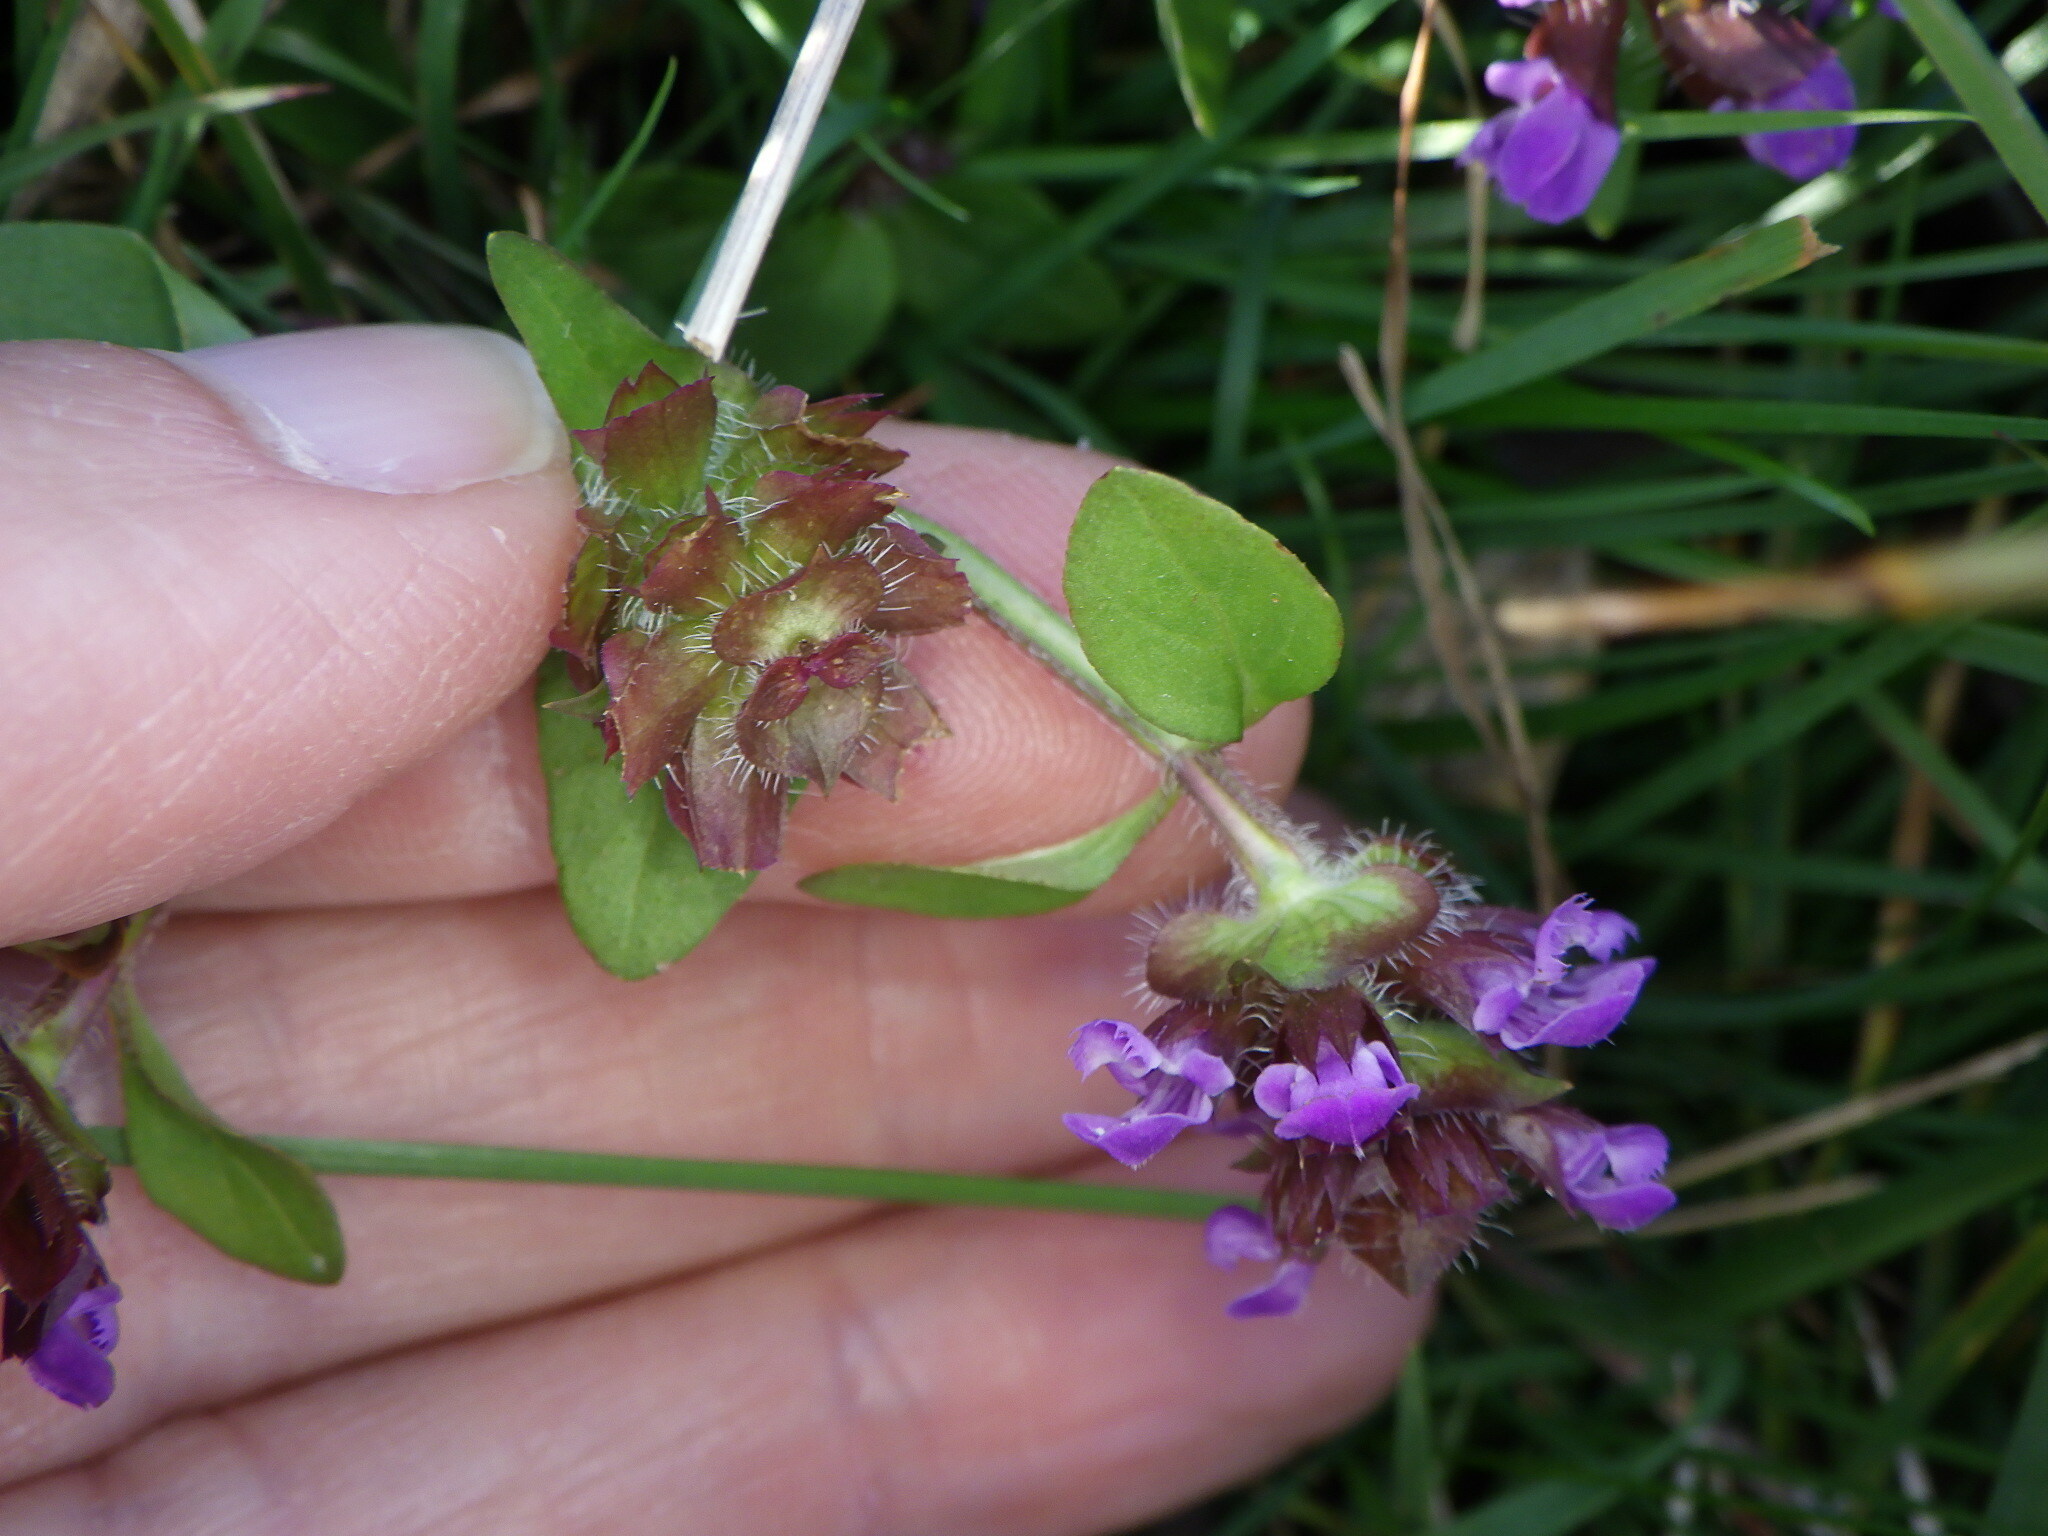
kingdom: Plantae
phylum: Tracheophyta
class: Magnoliopsida
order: Lamiales
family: Lamiaceae
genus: Prunella
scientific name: Prunella vulgaris
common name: Heal-all
